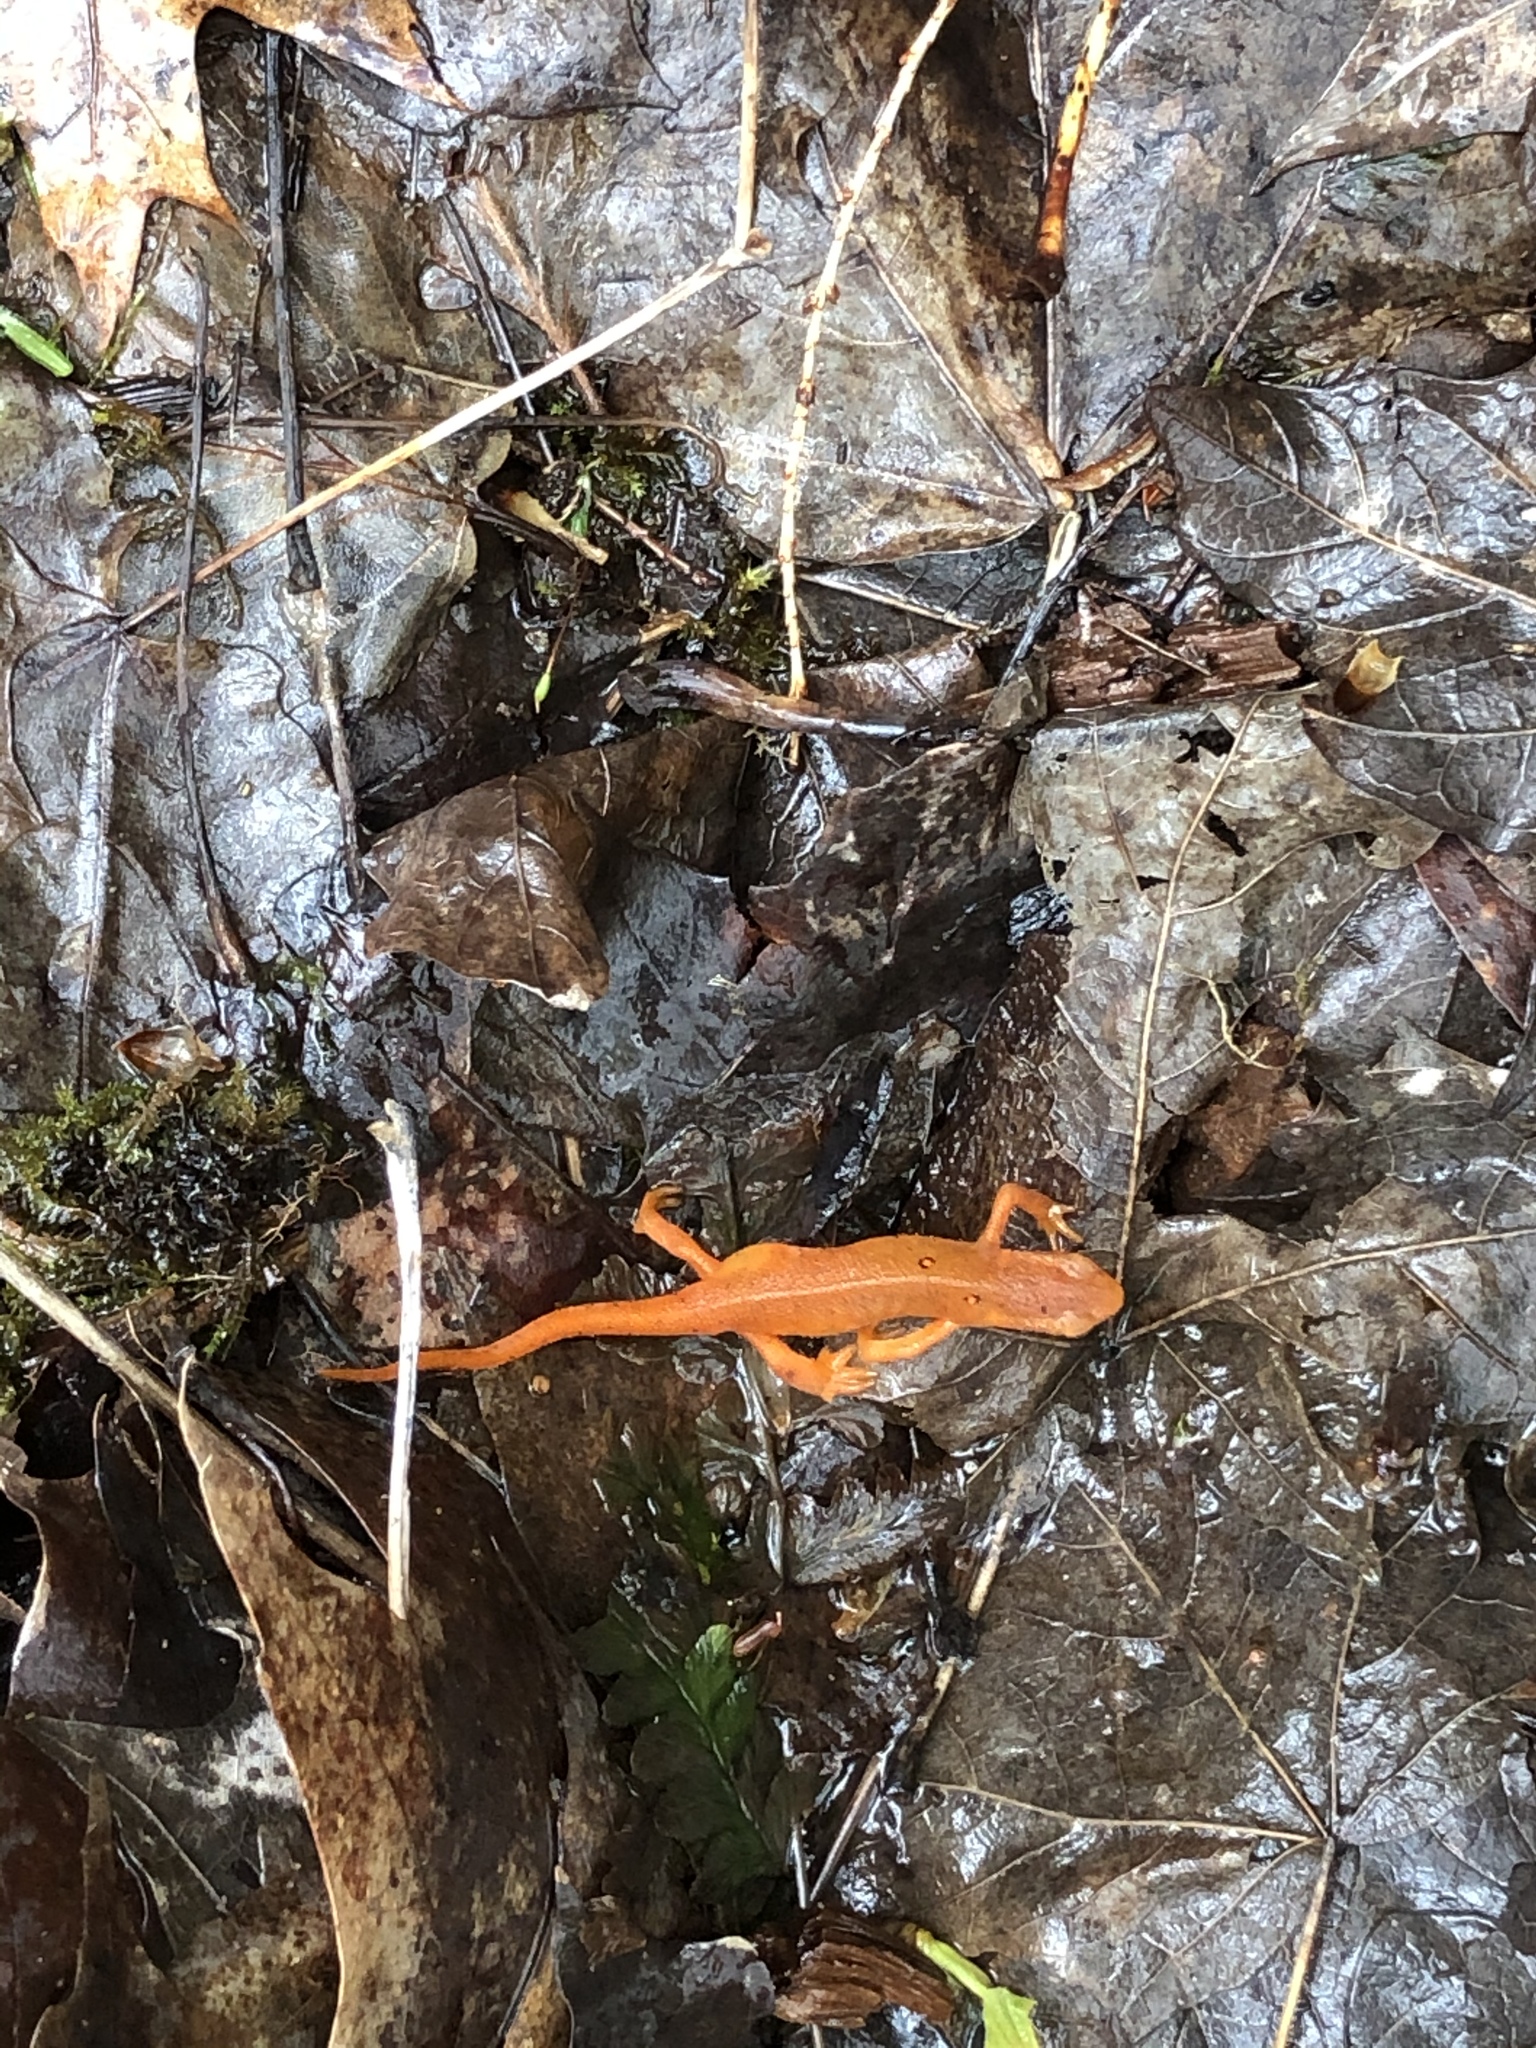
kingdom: Animalia
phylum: Chordata
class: Amphibia
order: Caudata
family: Salamandridae
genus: Notophthalmus
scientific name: Notophthalmus viridescens
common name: Eastern newt
